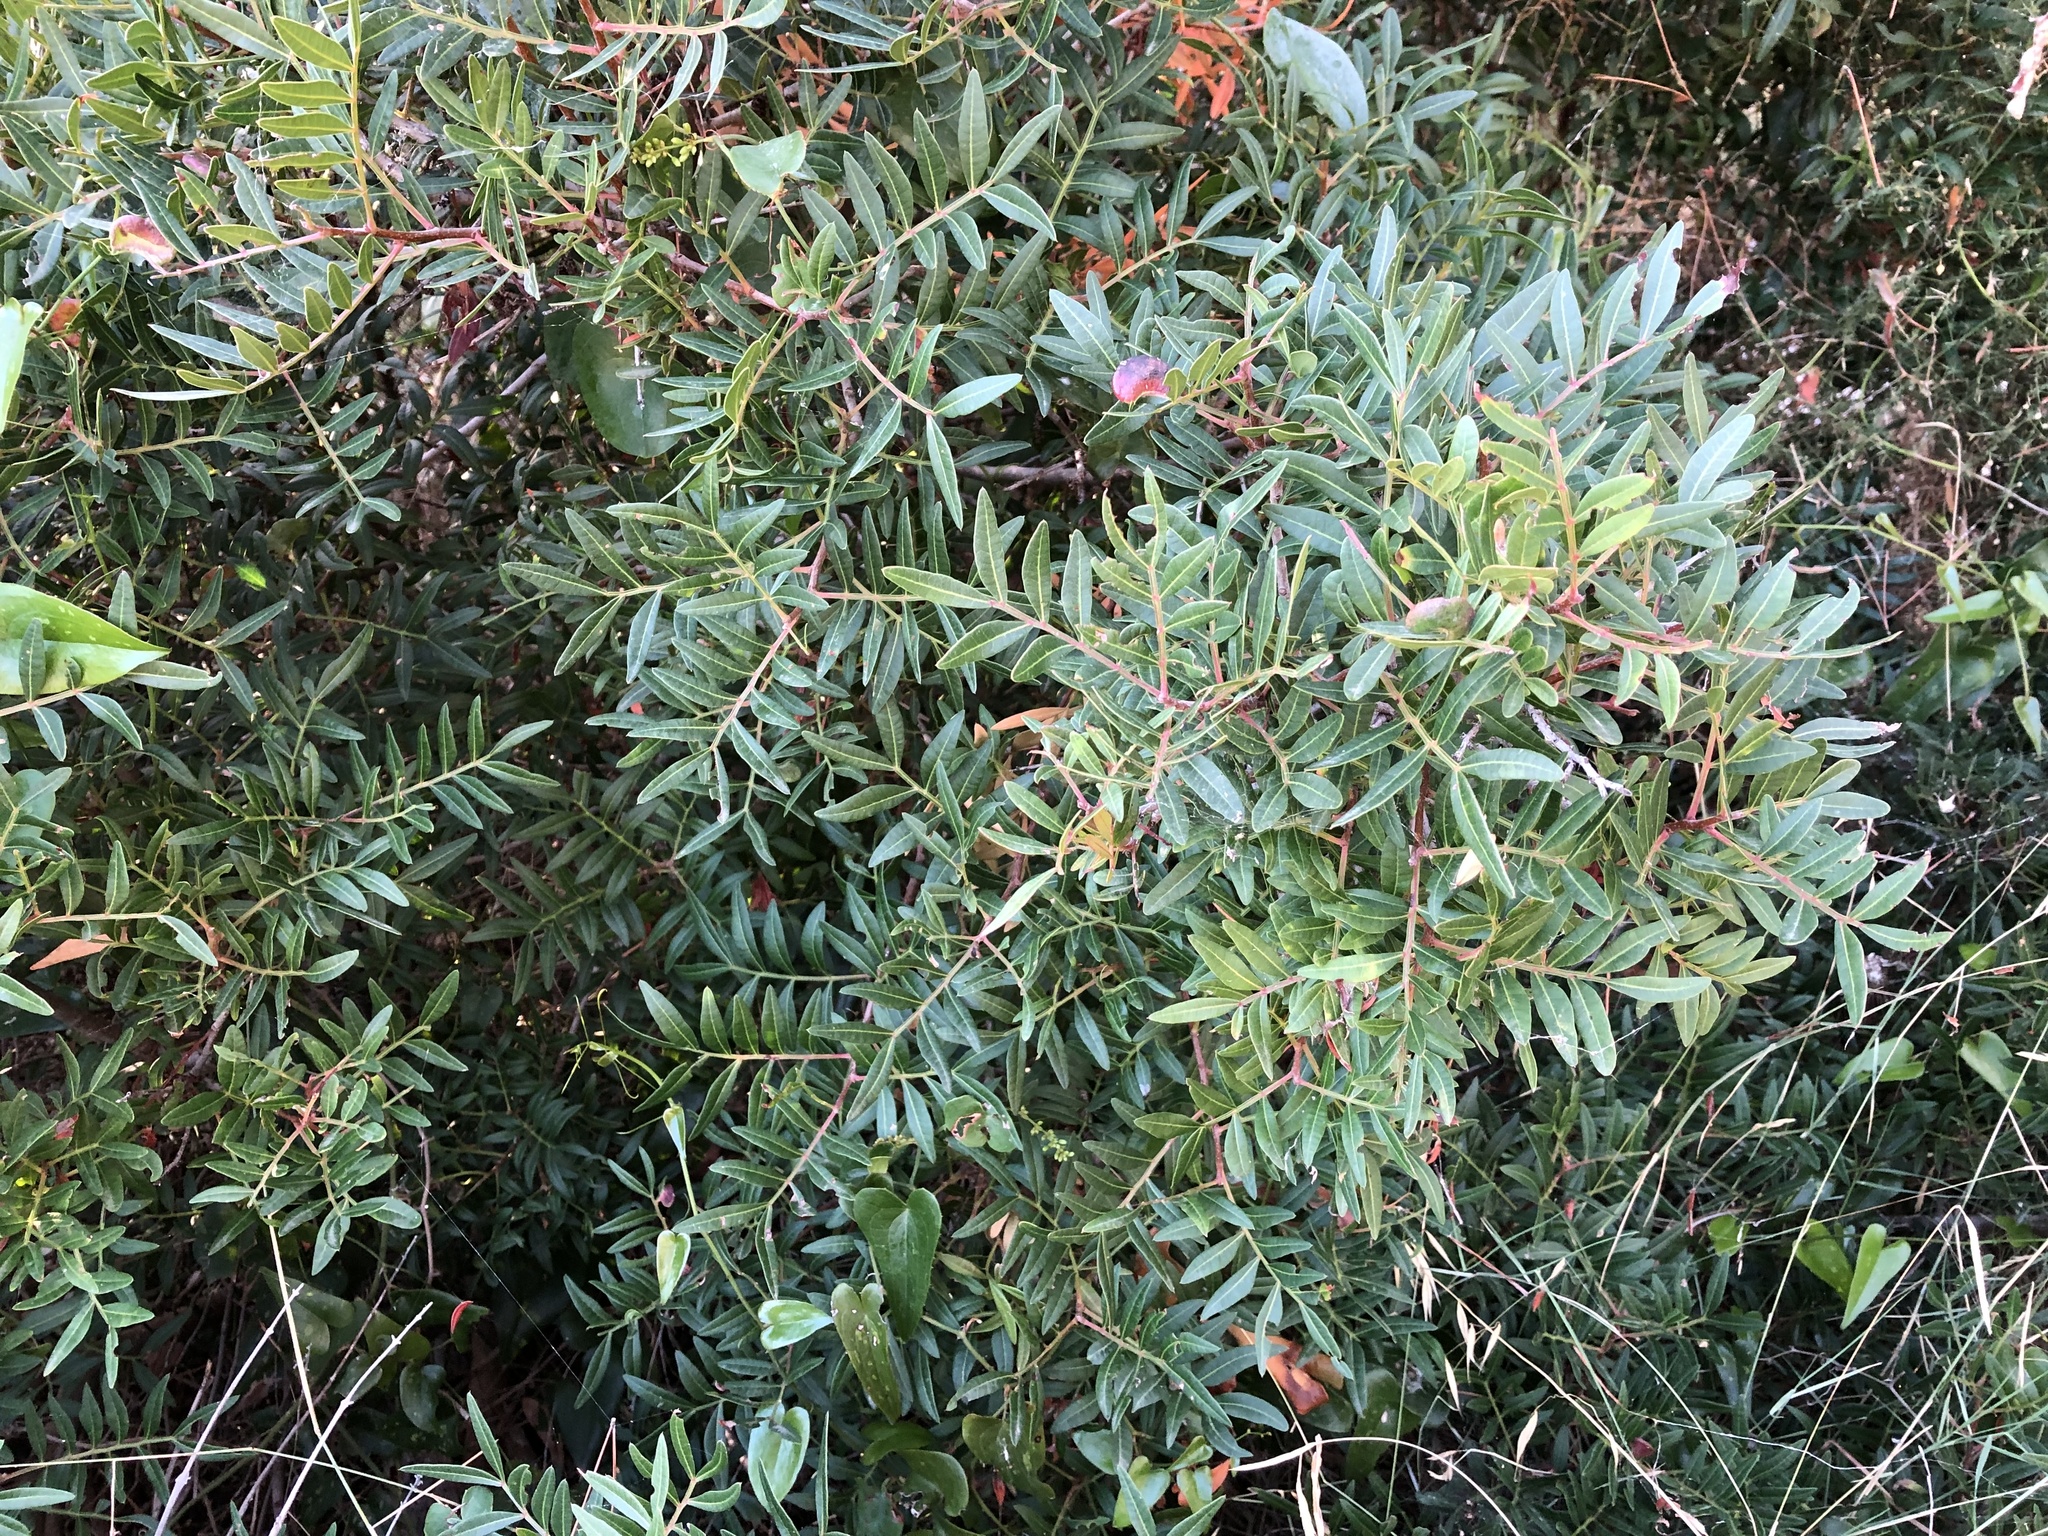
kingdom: Plantae
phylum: Tracheophyta
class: Magnoliopsida
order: Sapindales
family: Anacardiaceae
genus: Pistacia
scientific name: Pistacia lentiscus
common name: Lentisk
